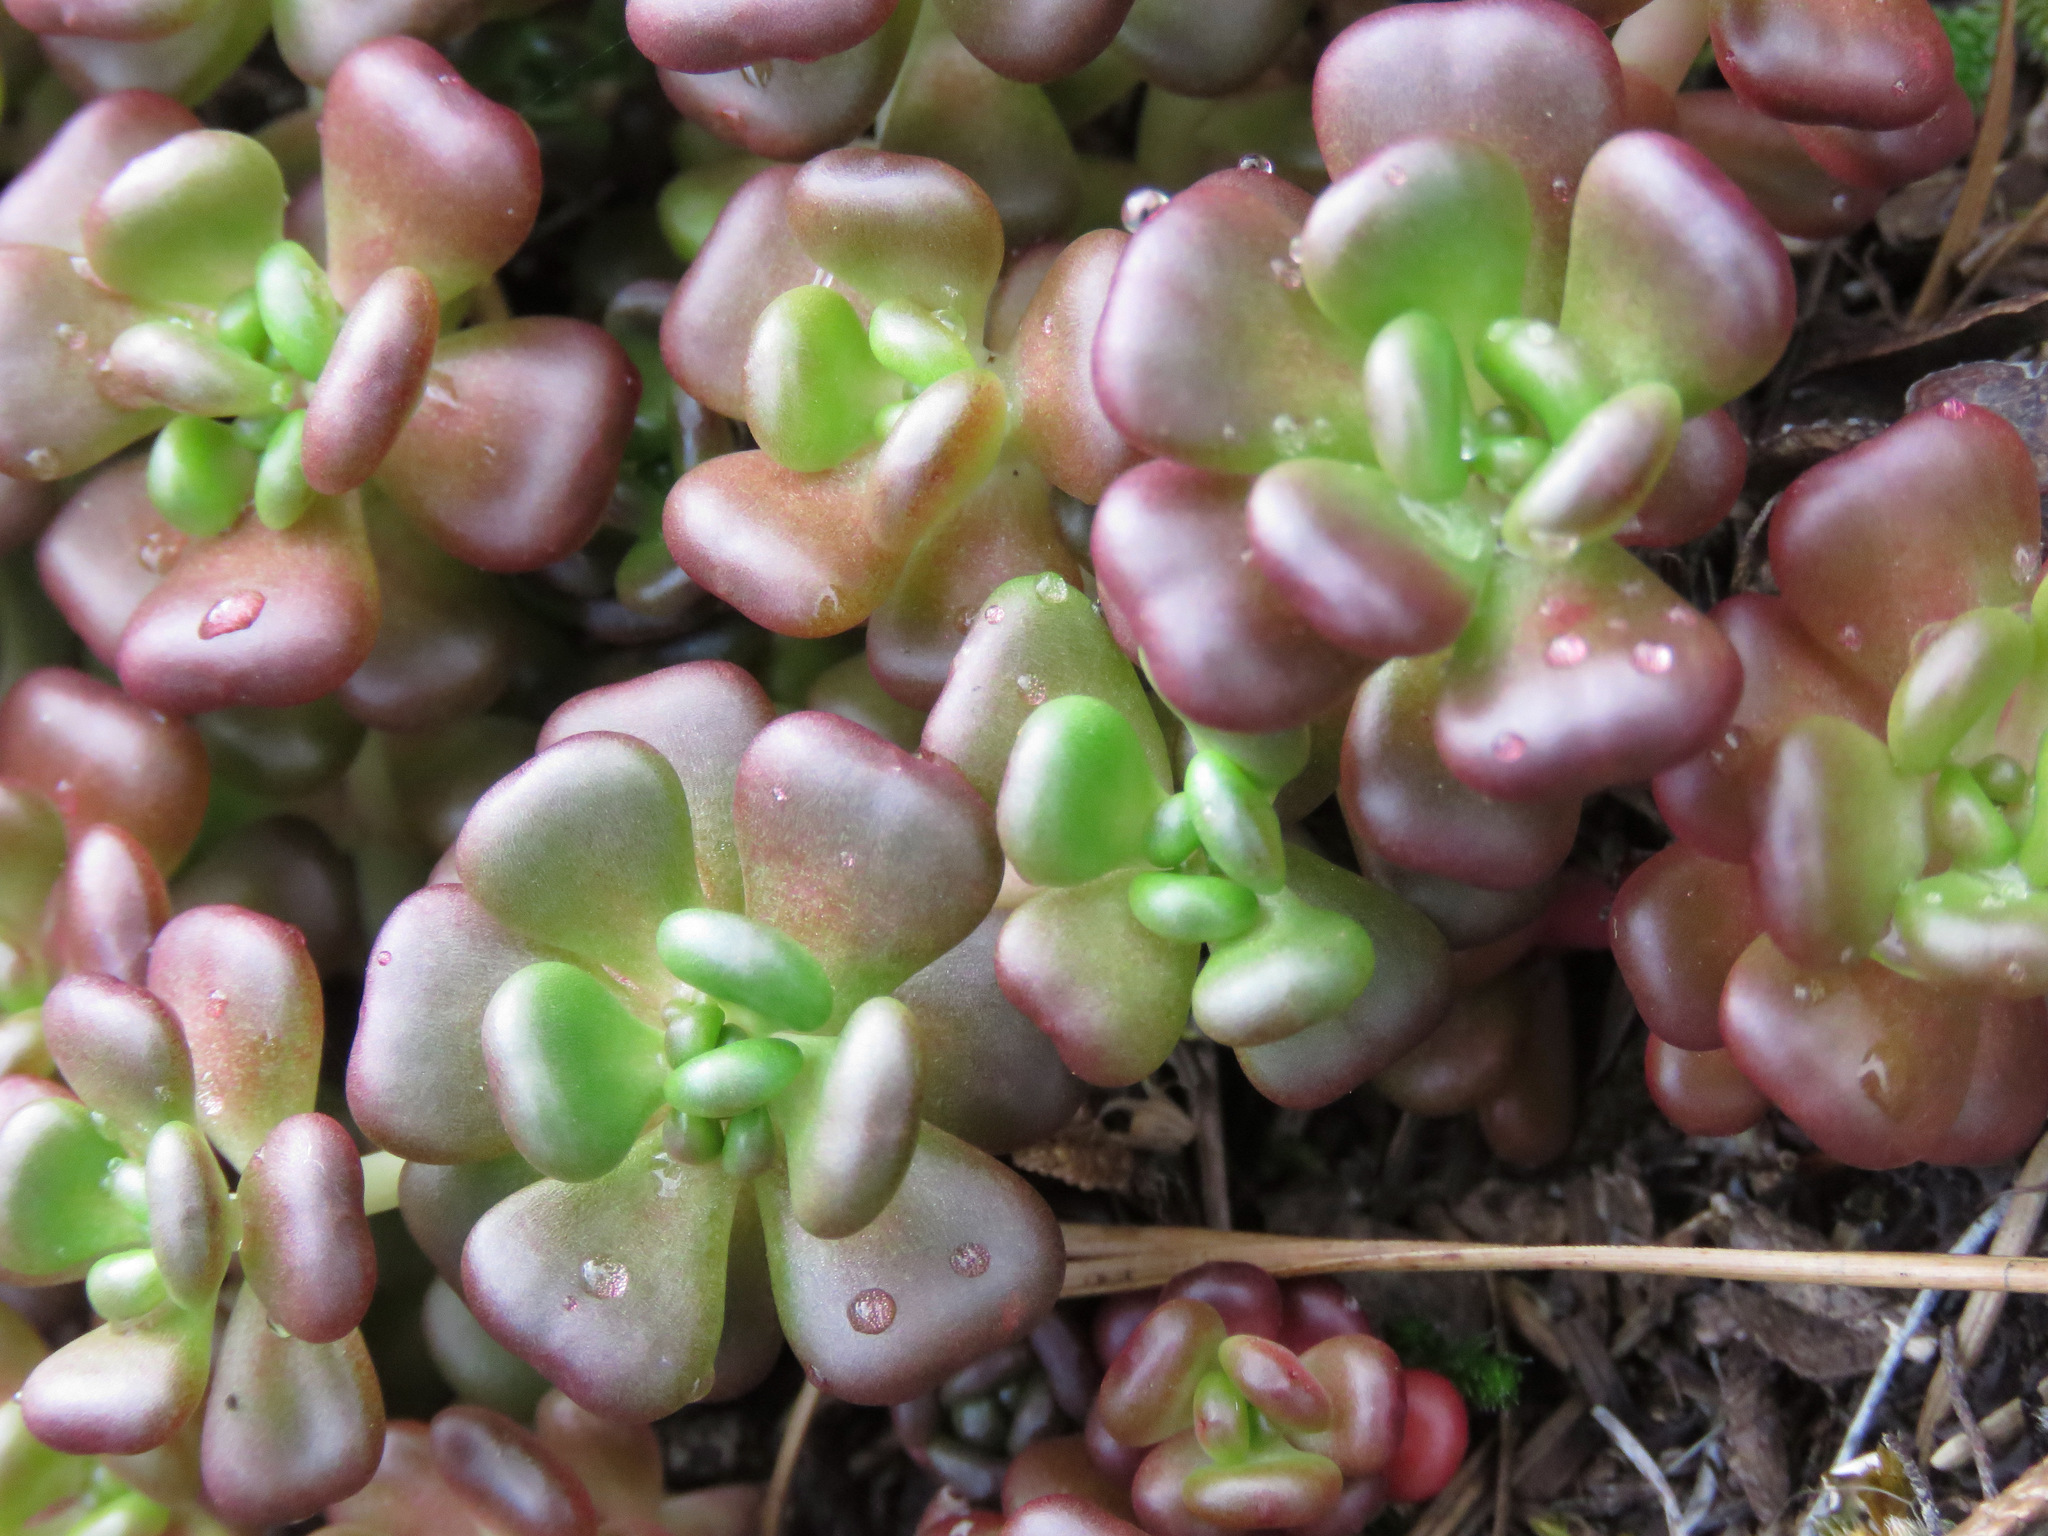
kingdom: Plantae
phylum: Tracheophyta
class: Magnoliopsida
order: Saxifragales
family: Crassulaceae
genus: Sedum
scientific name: Sedum oreganum
